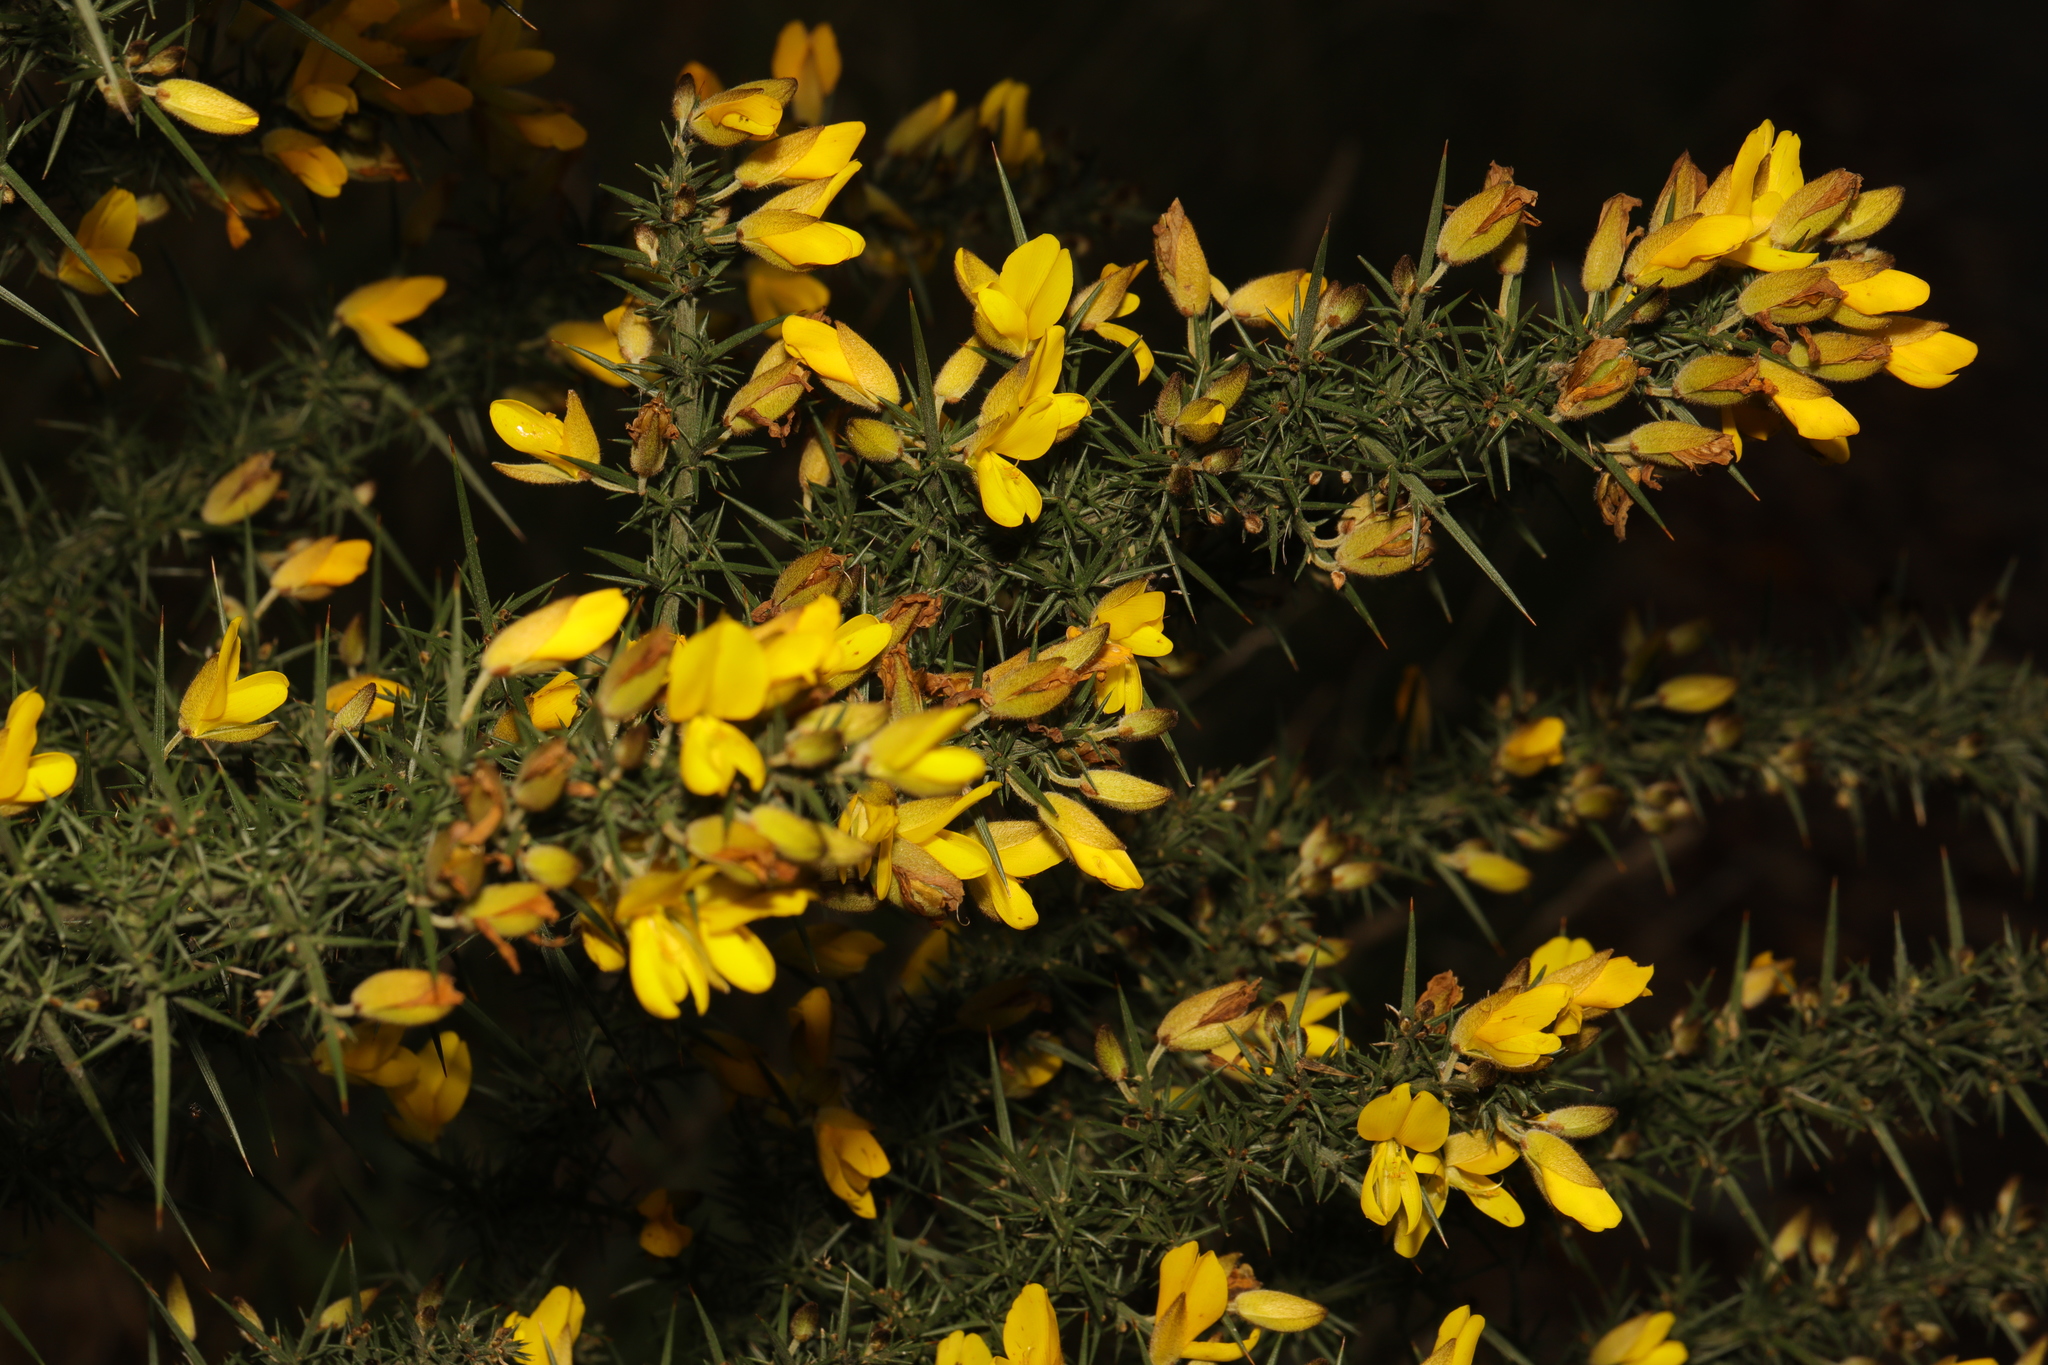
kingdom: Plantae
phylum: Tracheophyta
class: Magnoliopsida
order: Fabales
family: Fabaceae
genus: Ulex
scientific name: Ulex europaeus
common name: Common gorse
